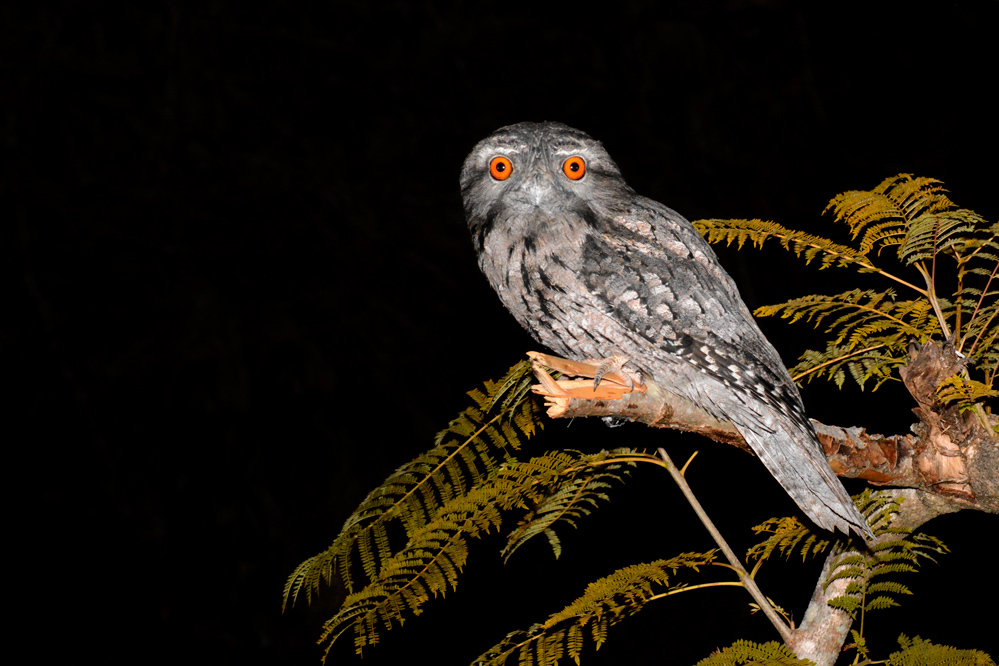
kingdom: Animalia
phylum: Chordata
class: Aves
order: Caprimulgiformes
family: Podargidae
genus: Podargus
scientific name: Podargus strigoides
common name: Tawny frogmouth
